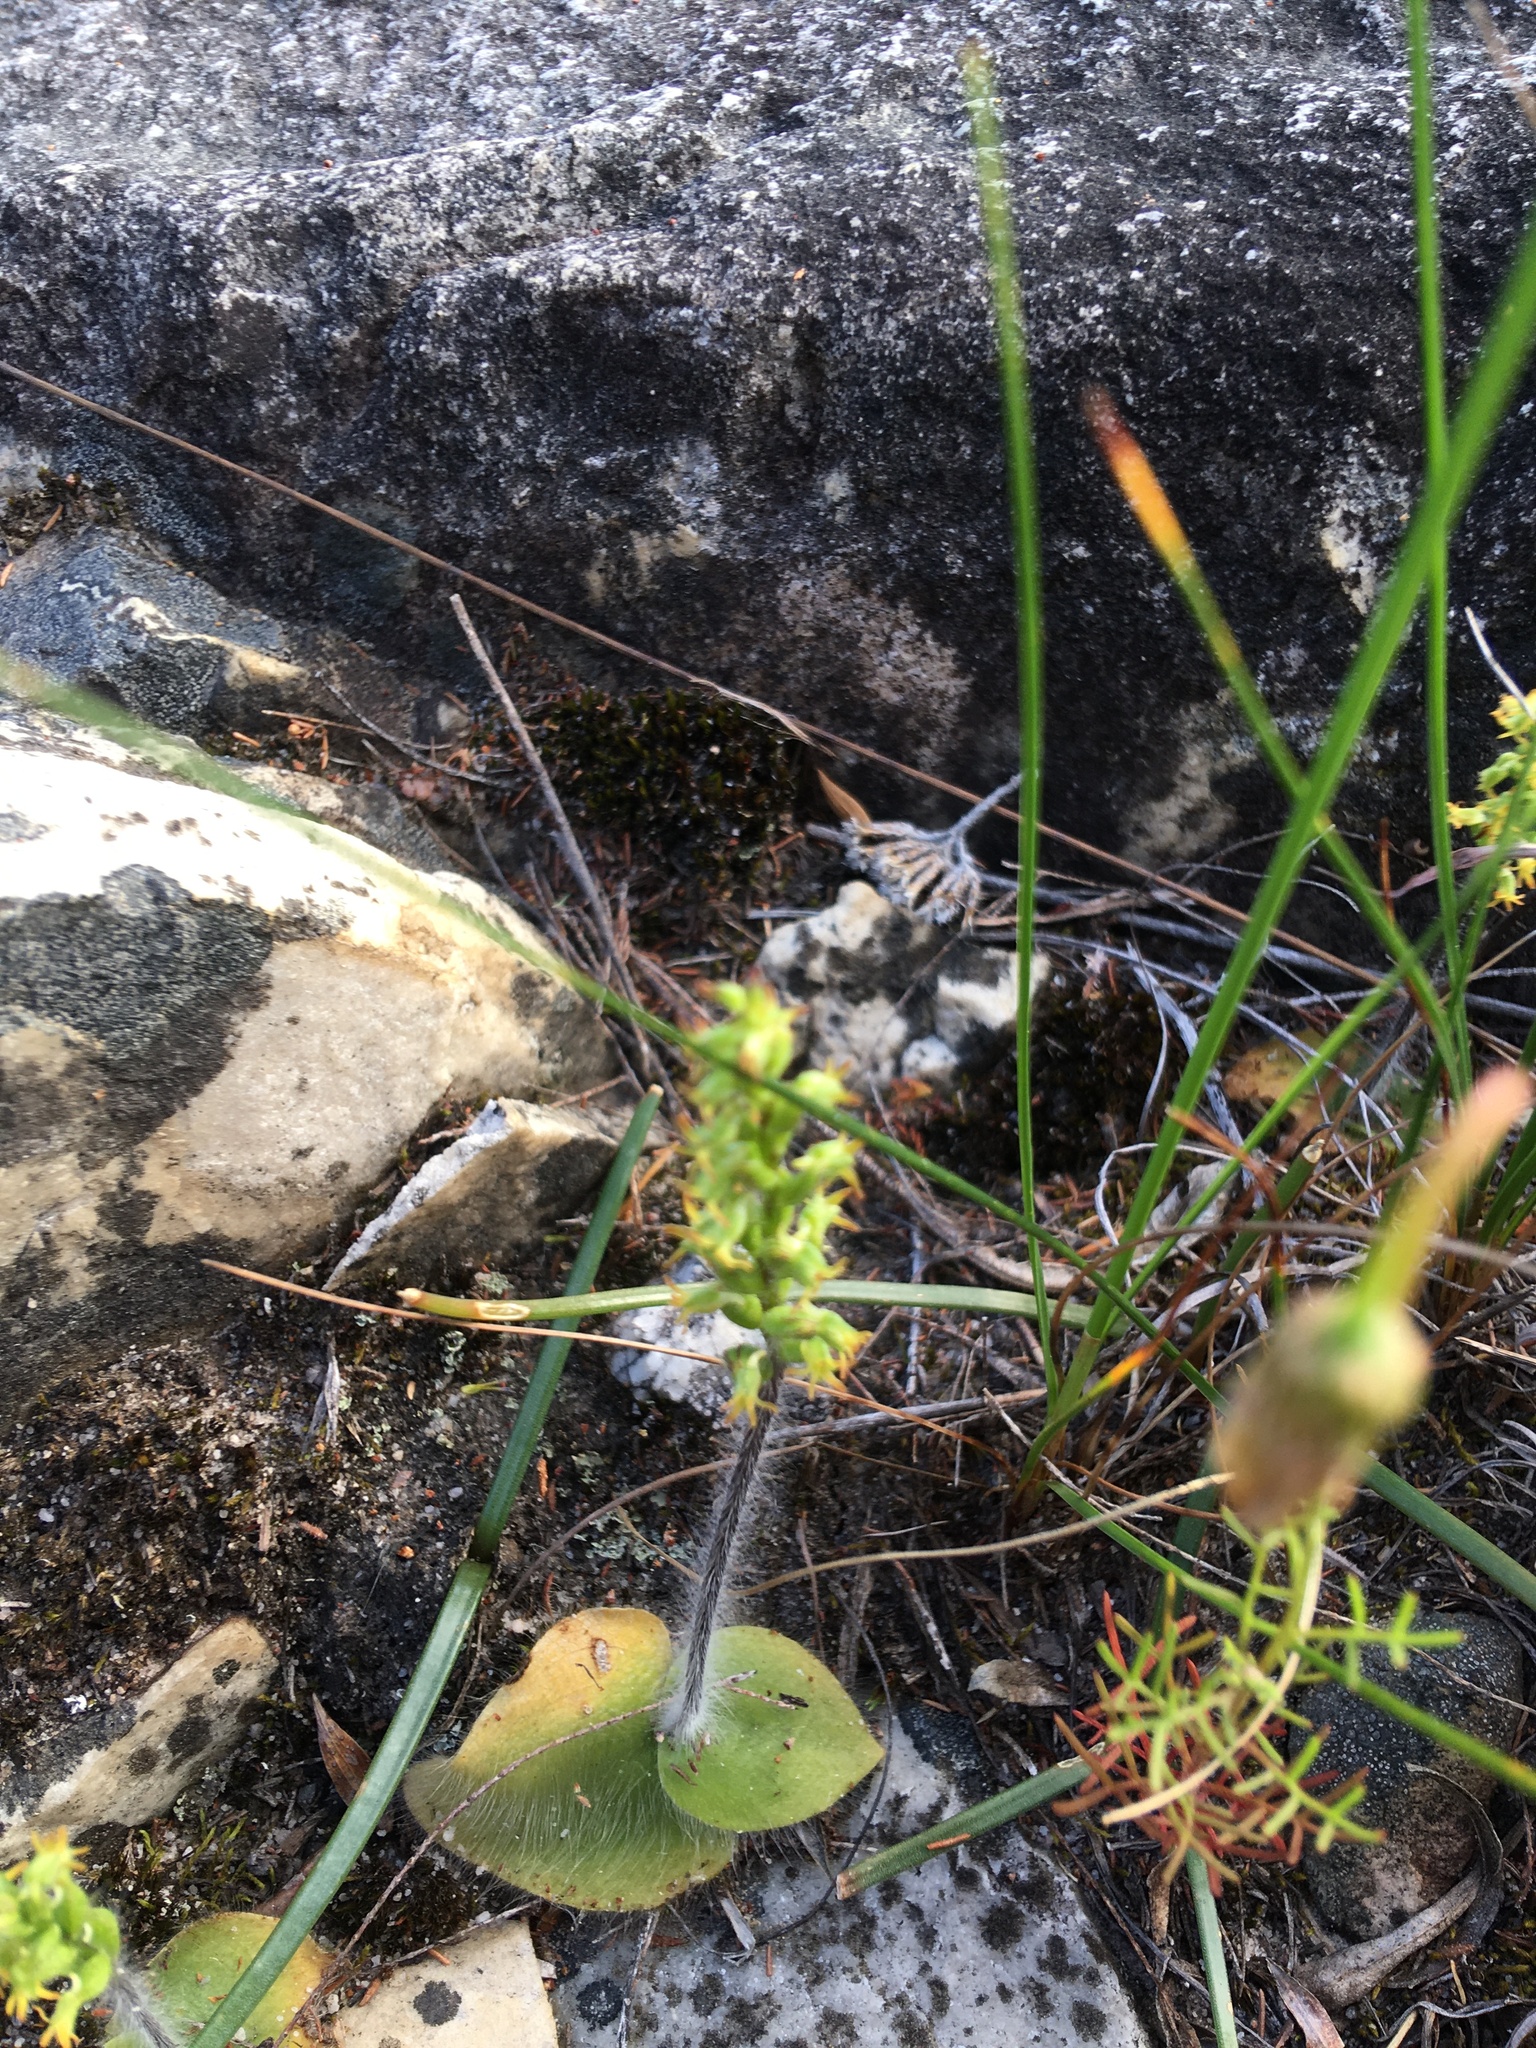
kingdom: Plantae
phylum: Tracheophyta
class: Liliopsida
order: Asparagales
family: Orchidaceae
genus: Holothrix
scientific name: Holothrix villosa
